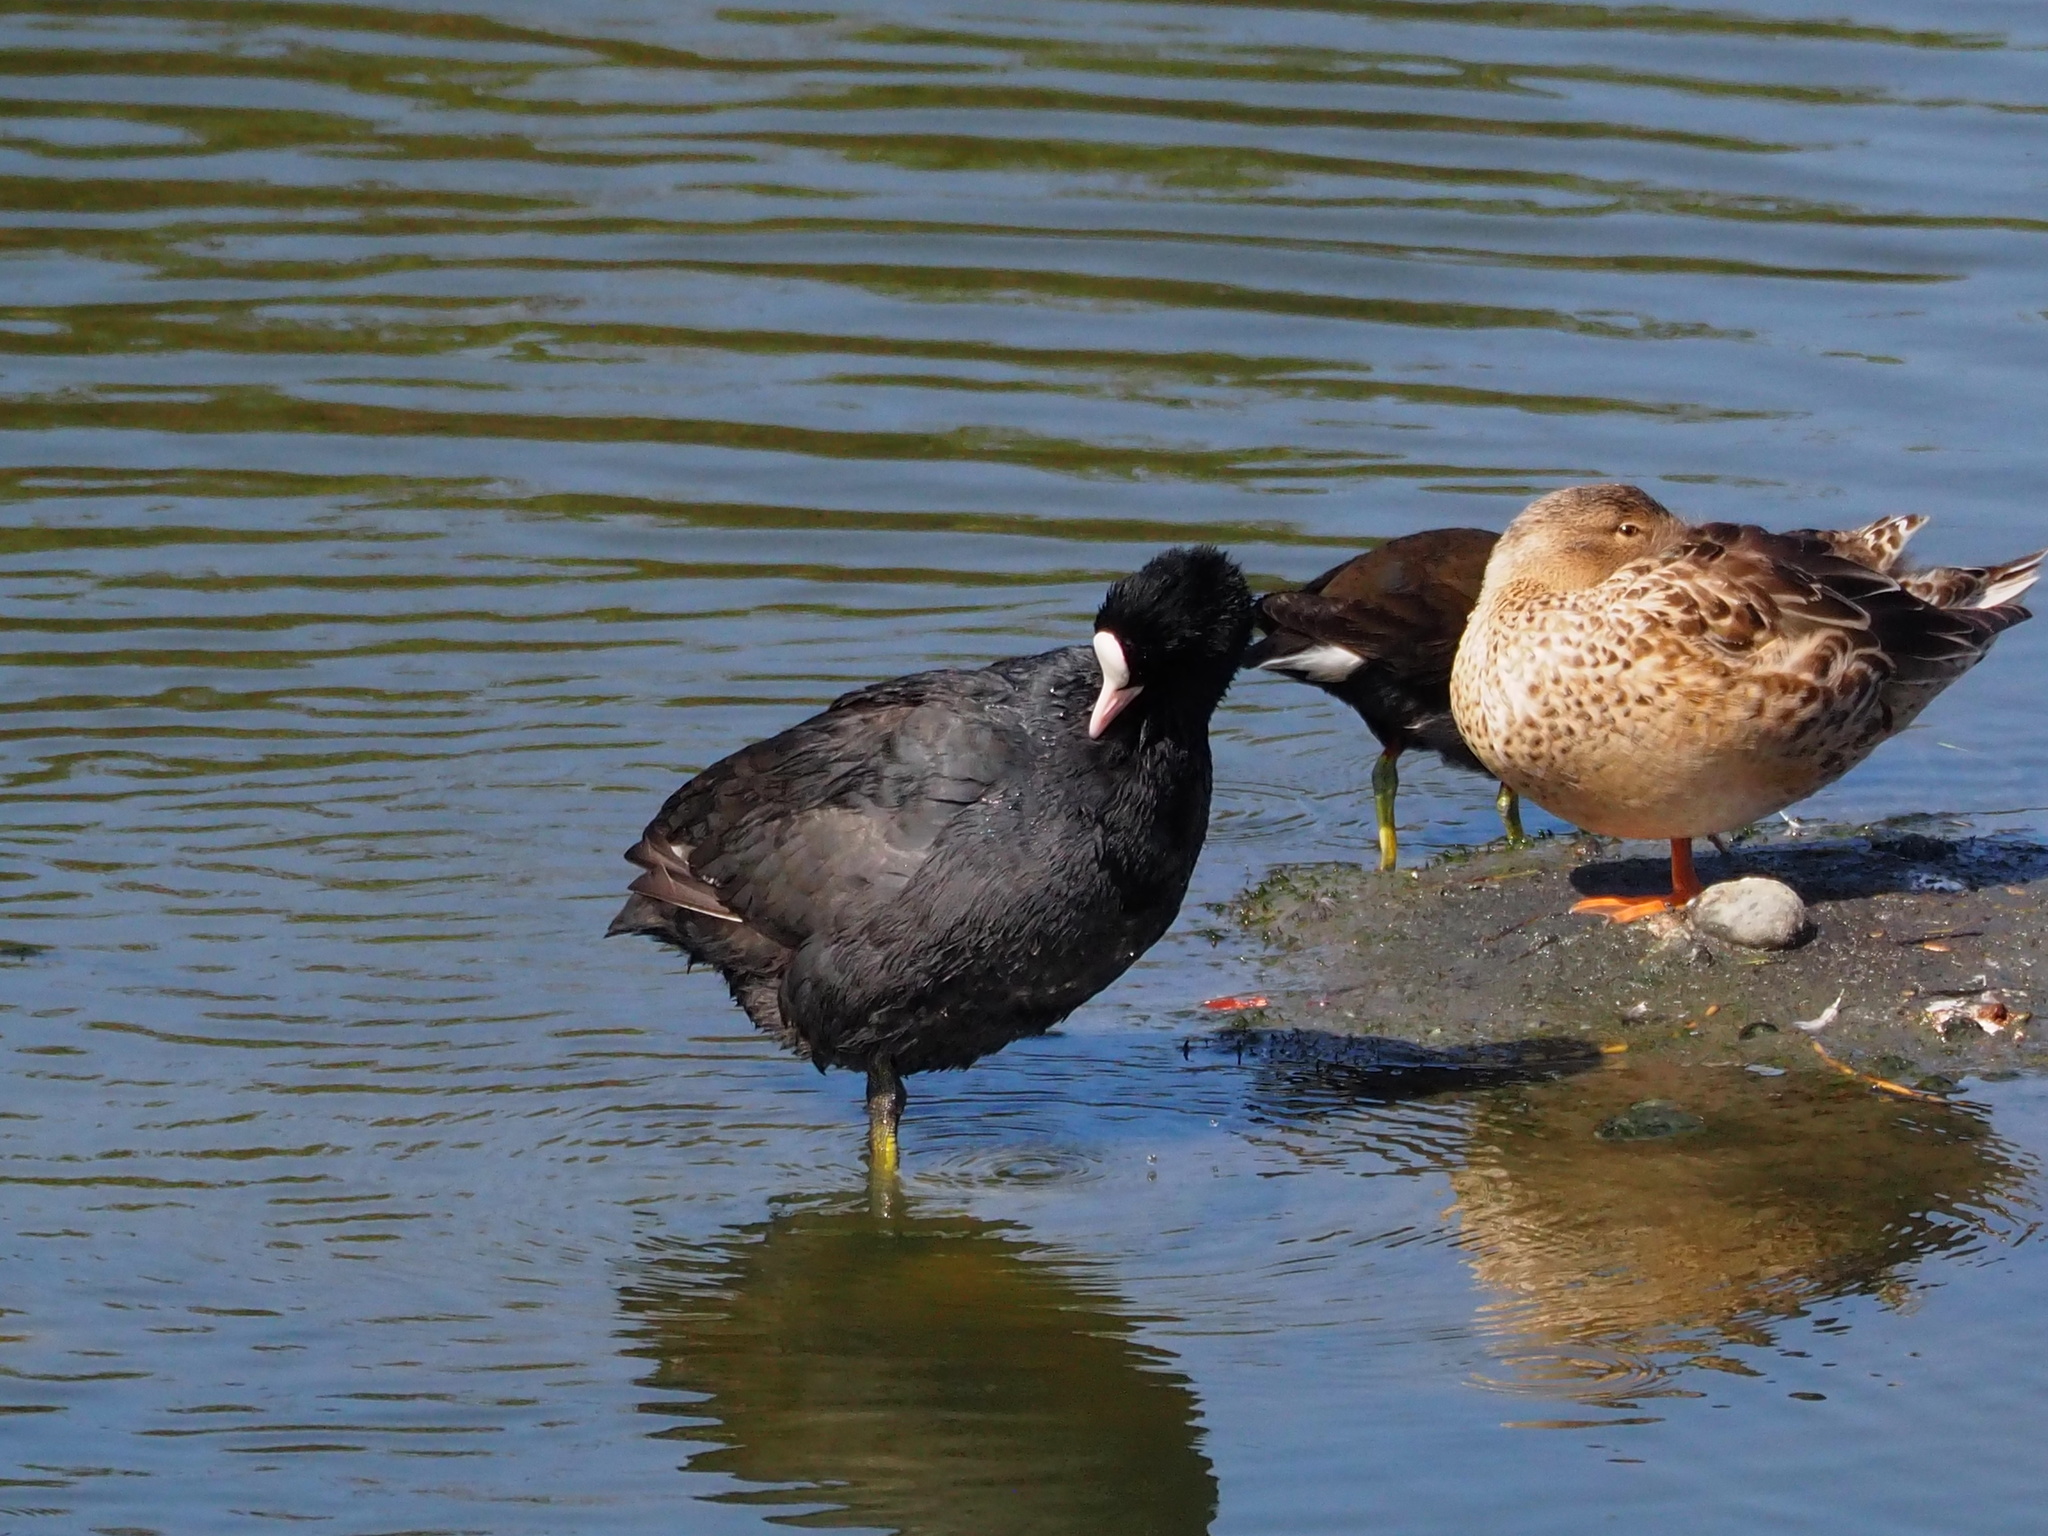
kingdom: Animalia
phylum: Chordata
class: Aves
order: Gruiformes
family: Rallidae
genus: Fulica
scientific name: Fulica atra
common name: Eurasian coot
